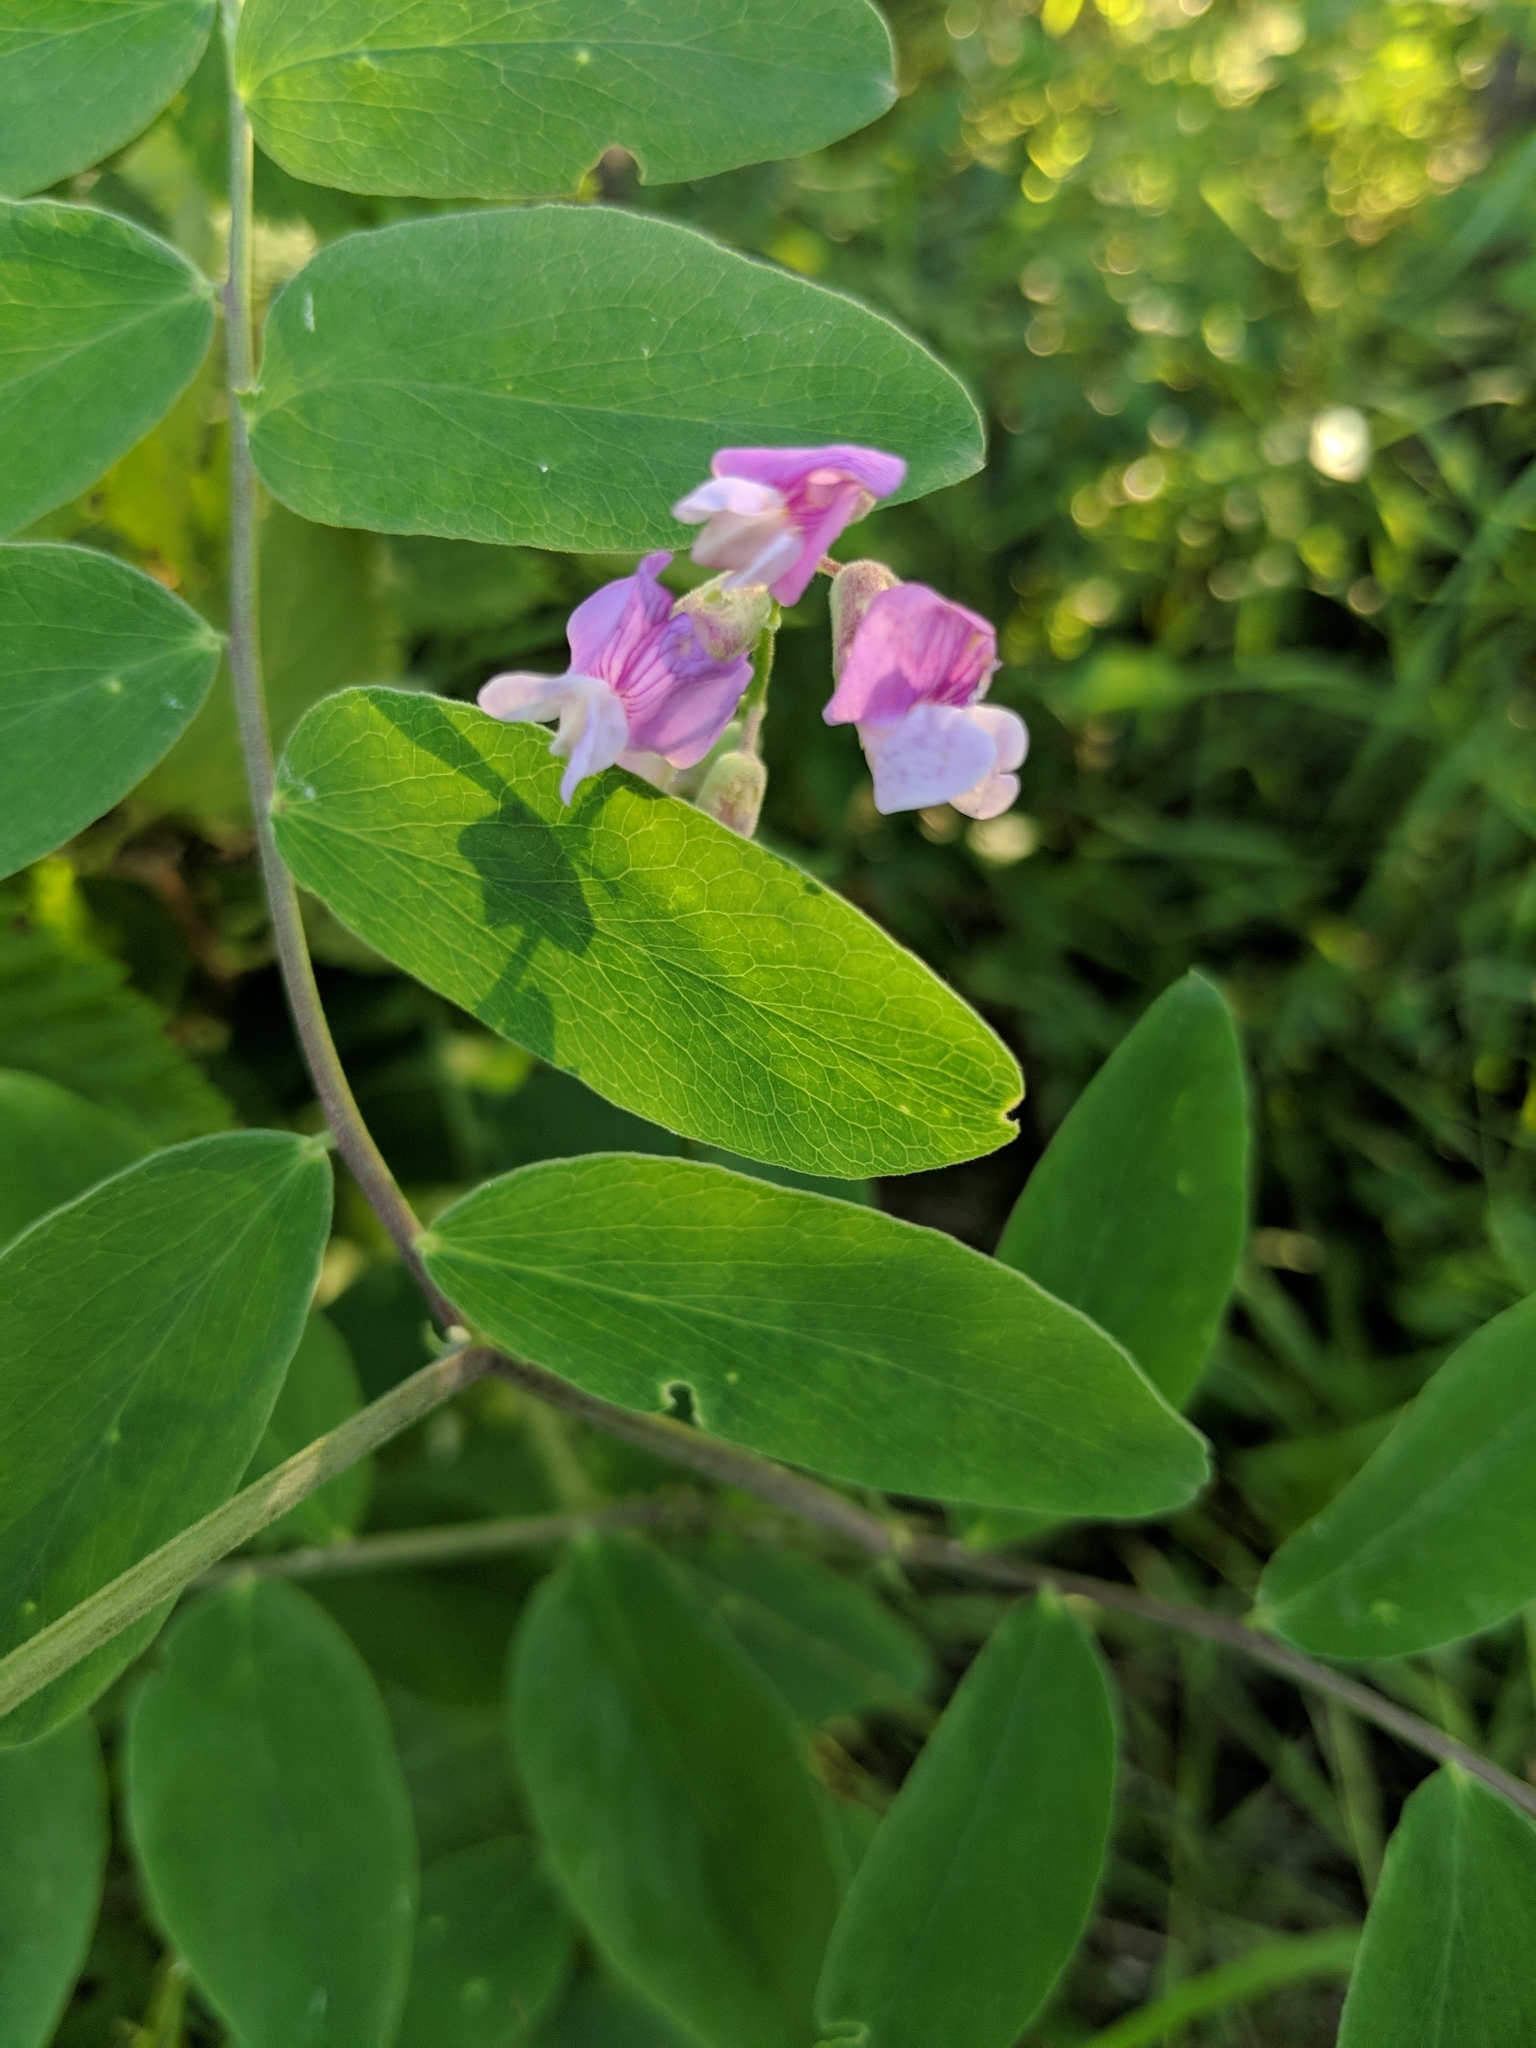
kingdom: Plantae
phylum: Tracheophyta
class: Magnoliopsida
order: Fabales
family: Fabaceae
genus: Lathyrus
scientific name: Lathyrus venosus
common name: Forest-pea
